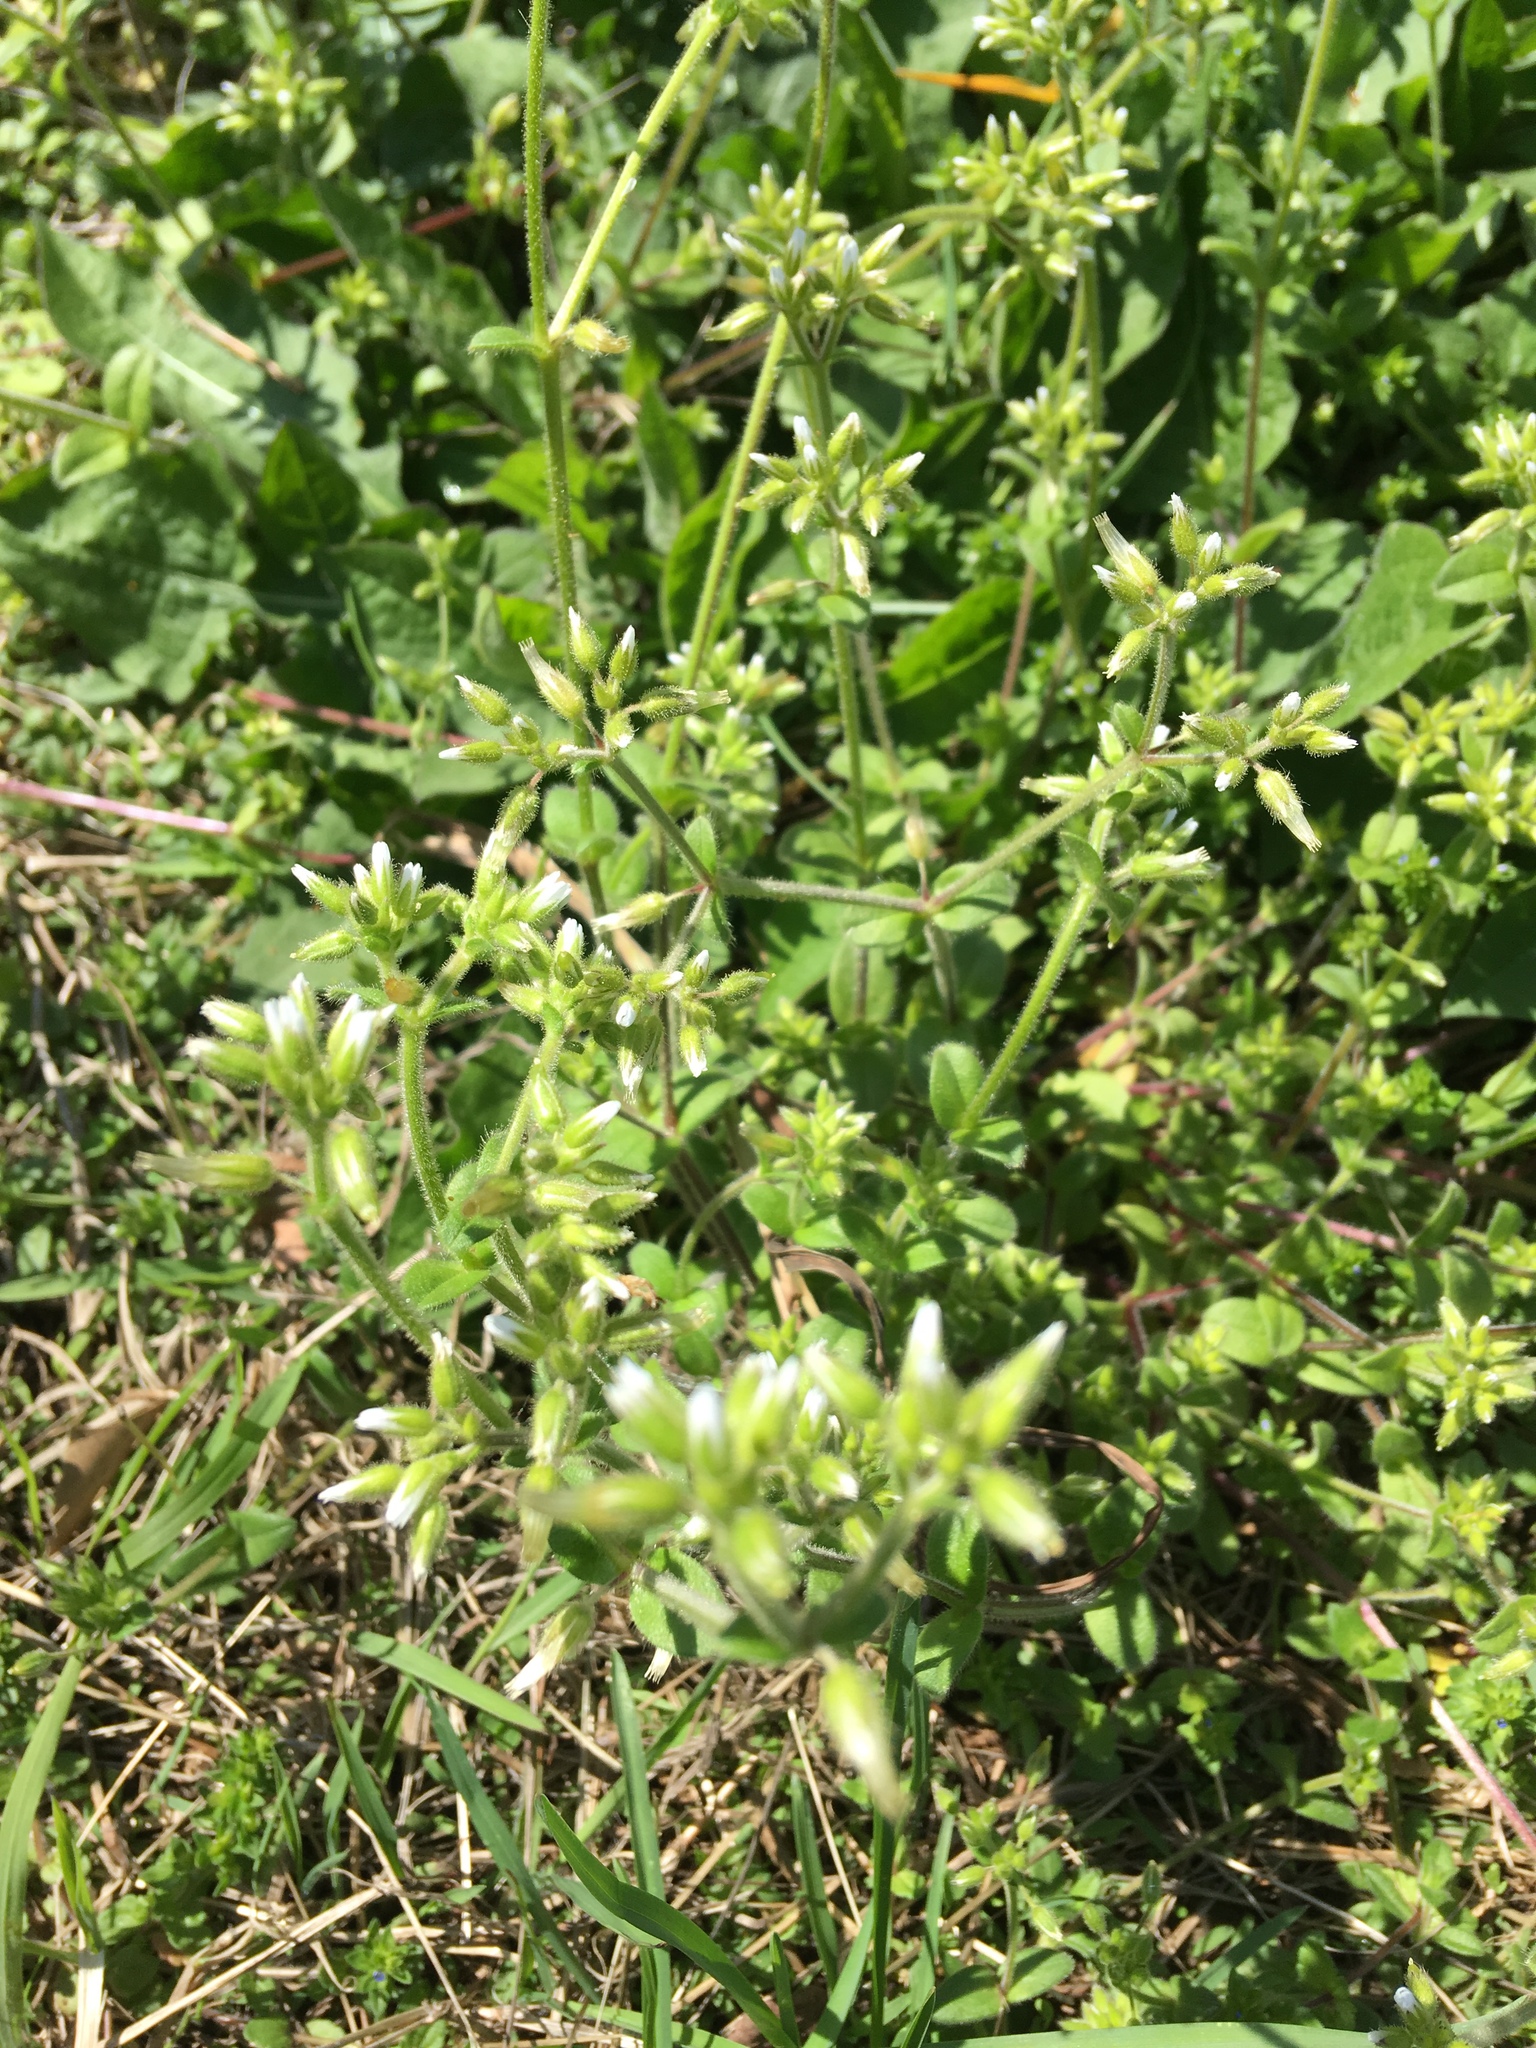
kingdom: Plantae
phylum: Tracheophyta
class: Magnoliopsida
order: Caryophyllales
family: Caryophyllaceae
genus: Cerastium
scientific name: Cerastium glomeratum
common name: Sticky chickweed
